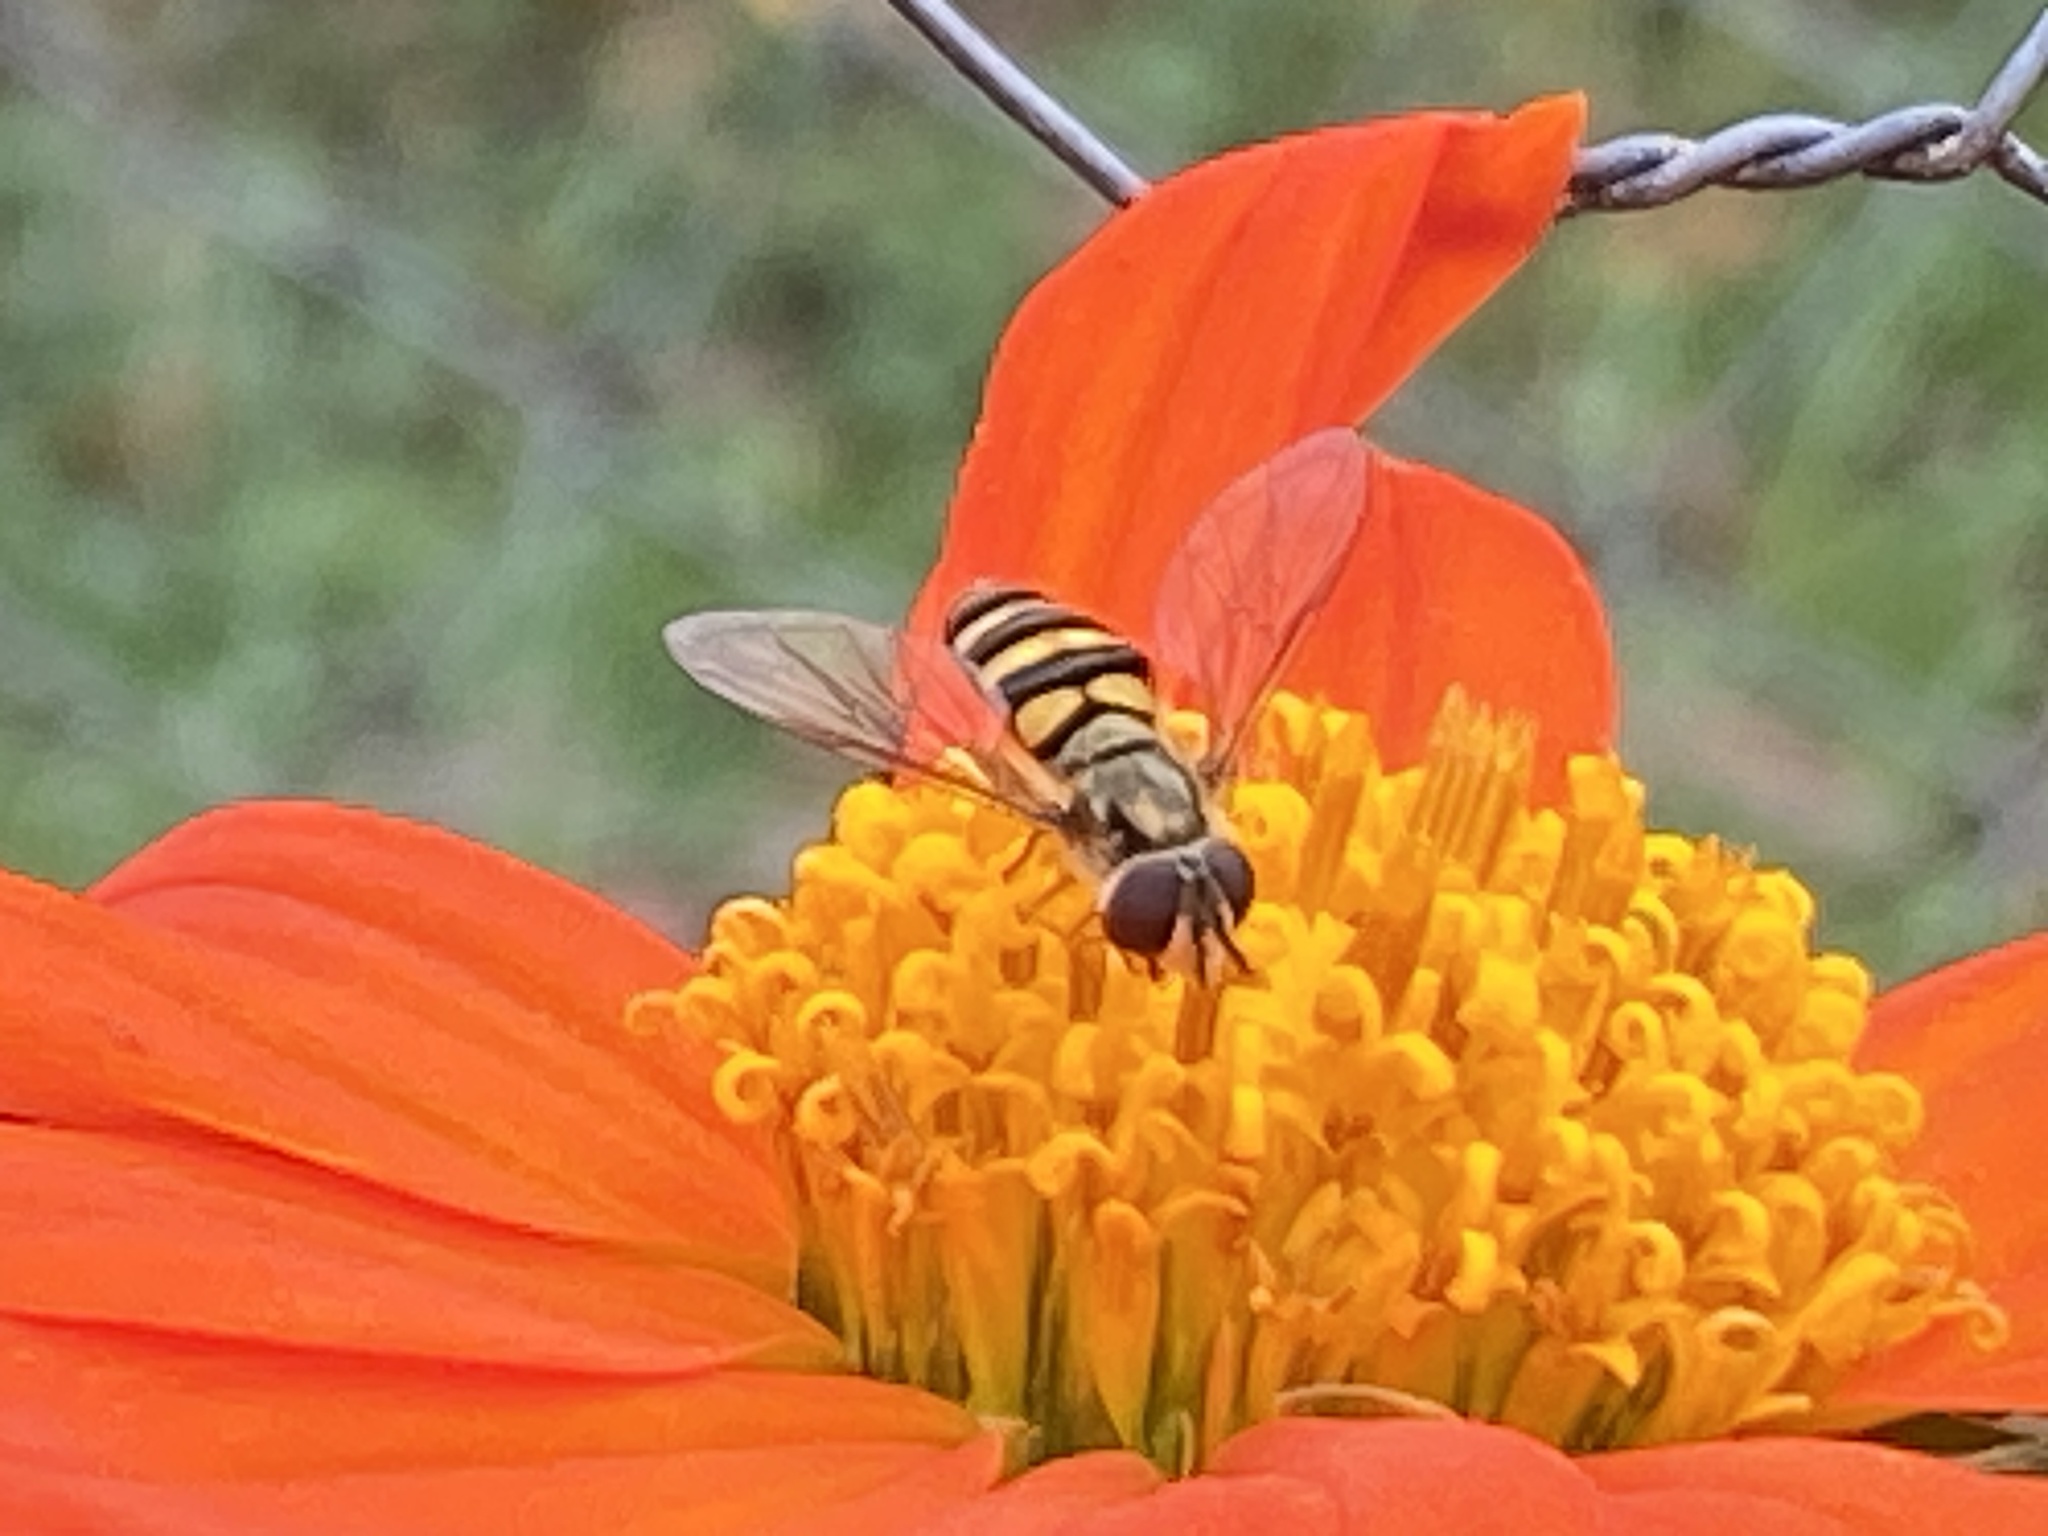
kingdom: Animalia
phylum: Arthropoda
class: Insecta
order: Diptera
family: Syrphidae
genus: Eupeodes
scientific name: Eupeodes
